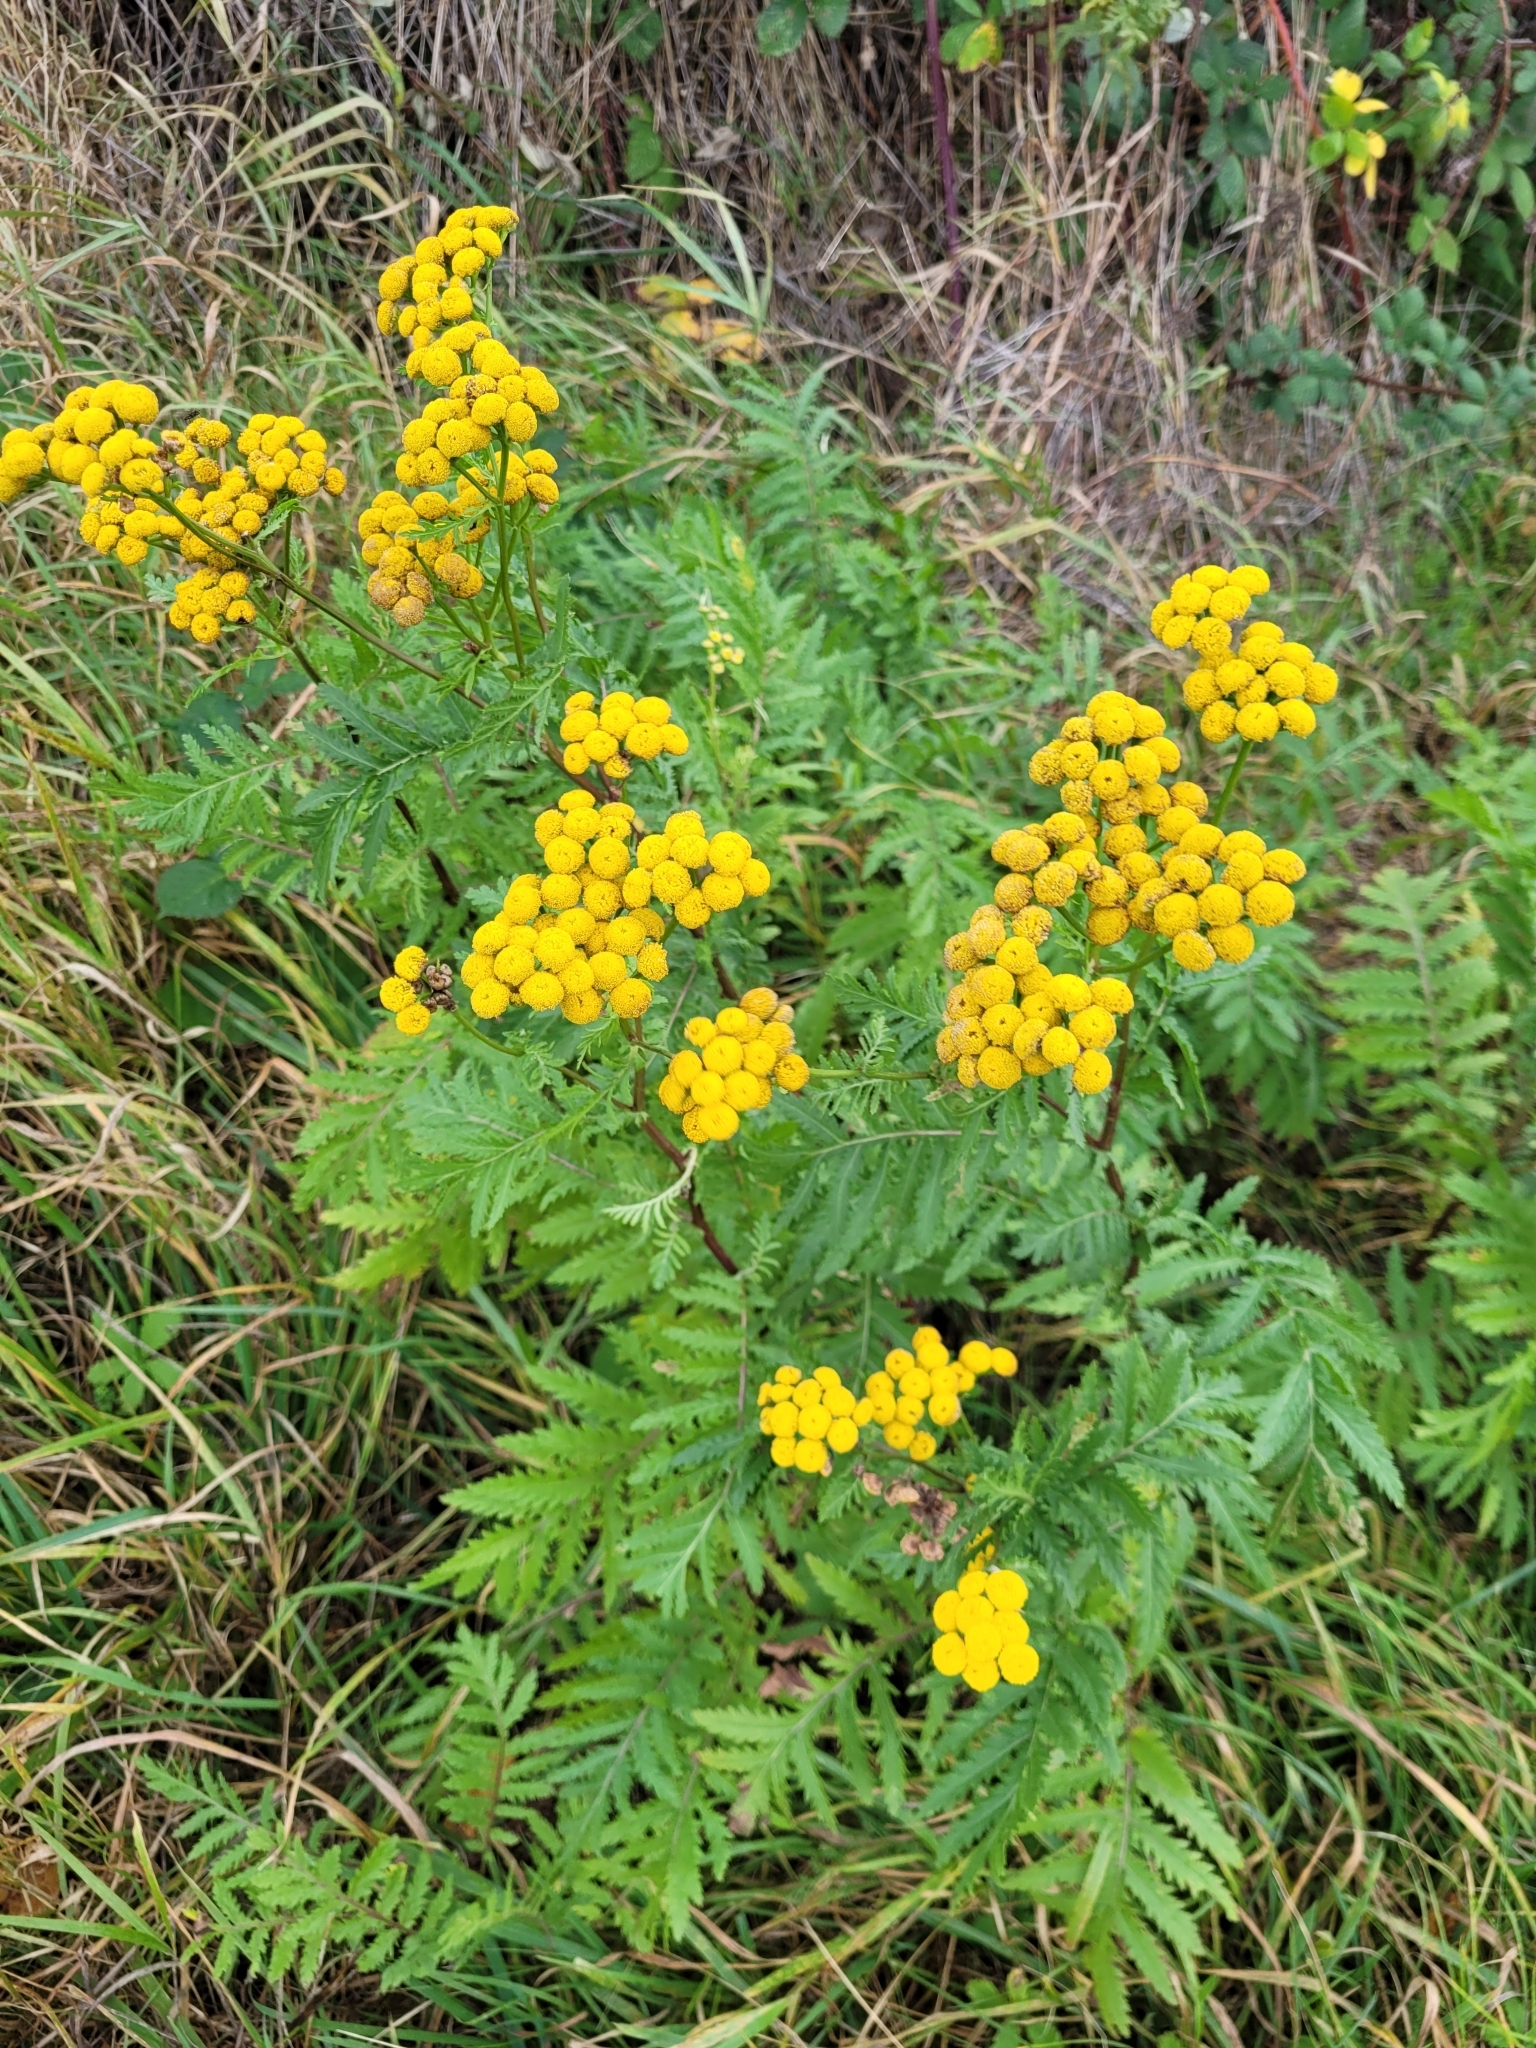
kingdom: Plantae
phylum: Tracheophyta
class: Magnoliopsida
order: Asterales
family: Asteraceae
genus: Tanacetum
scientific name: Tanacetum vulgare
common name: Common tansy
